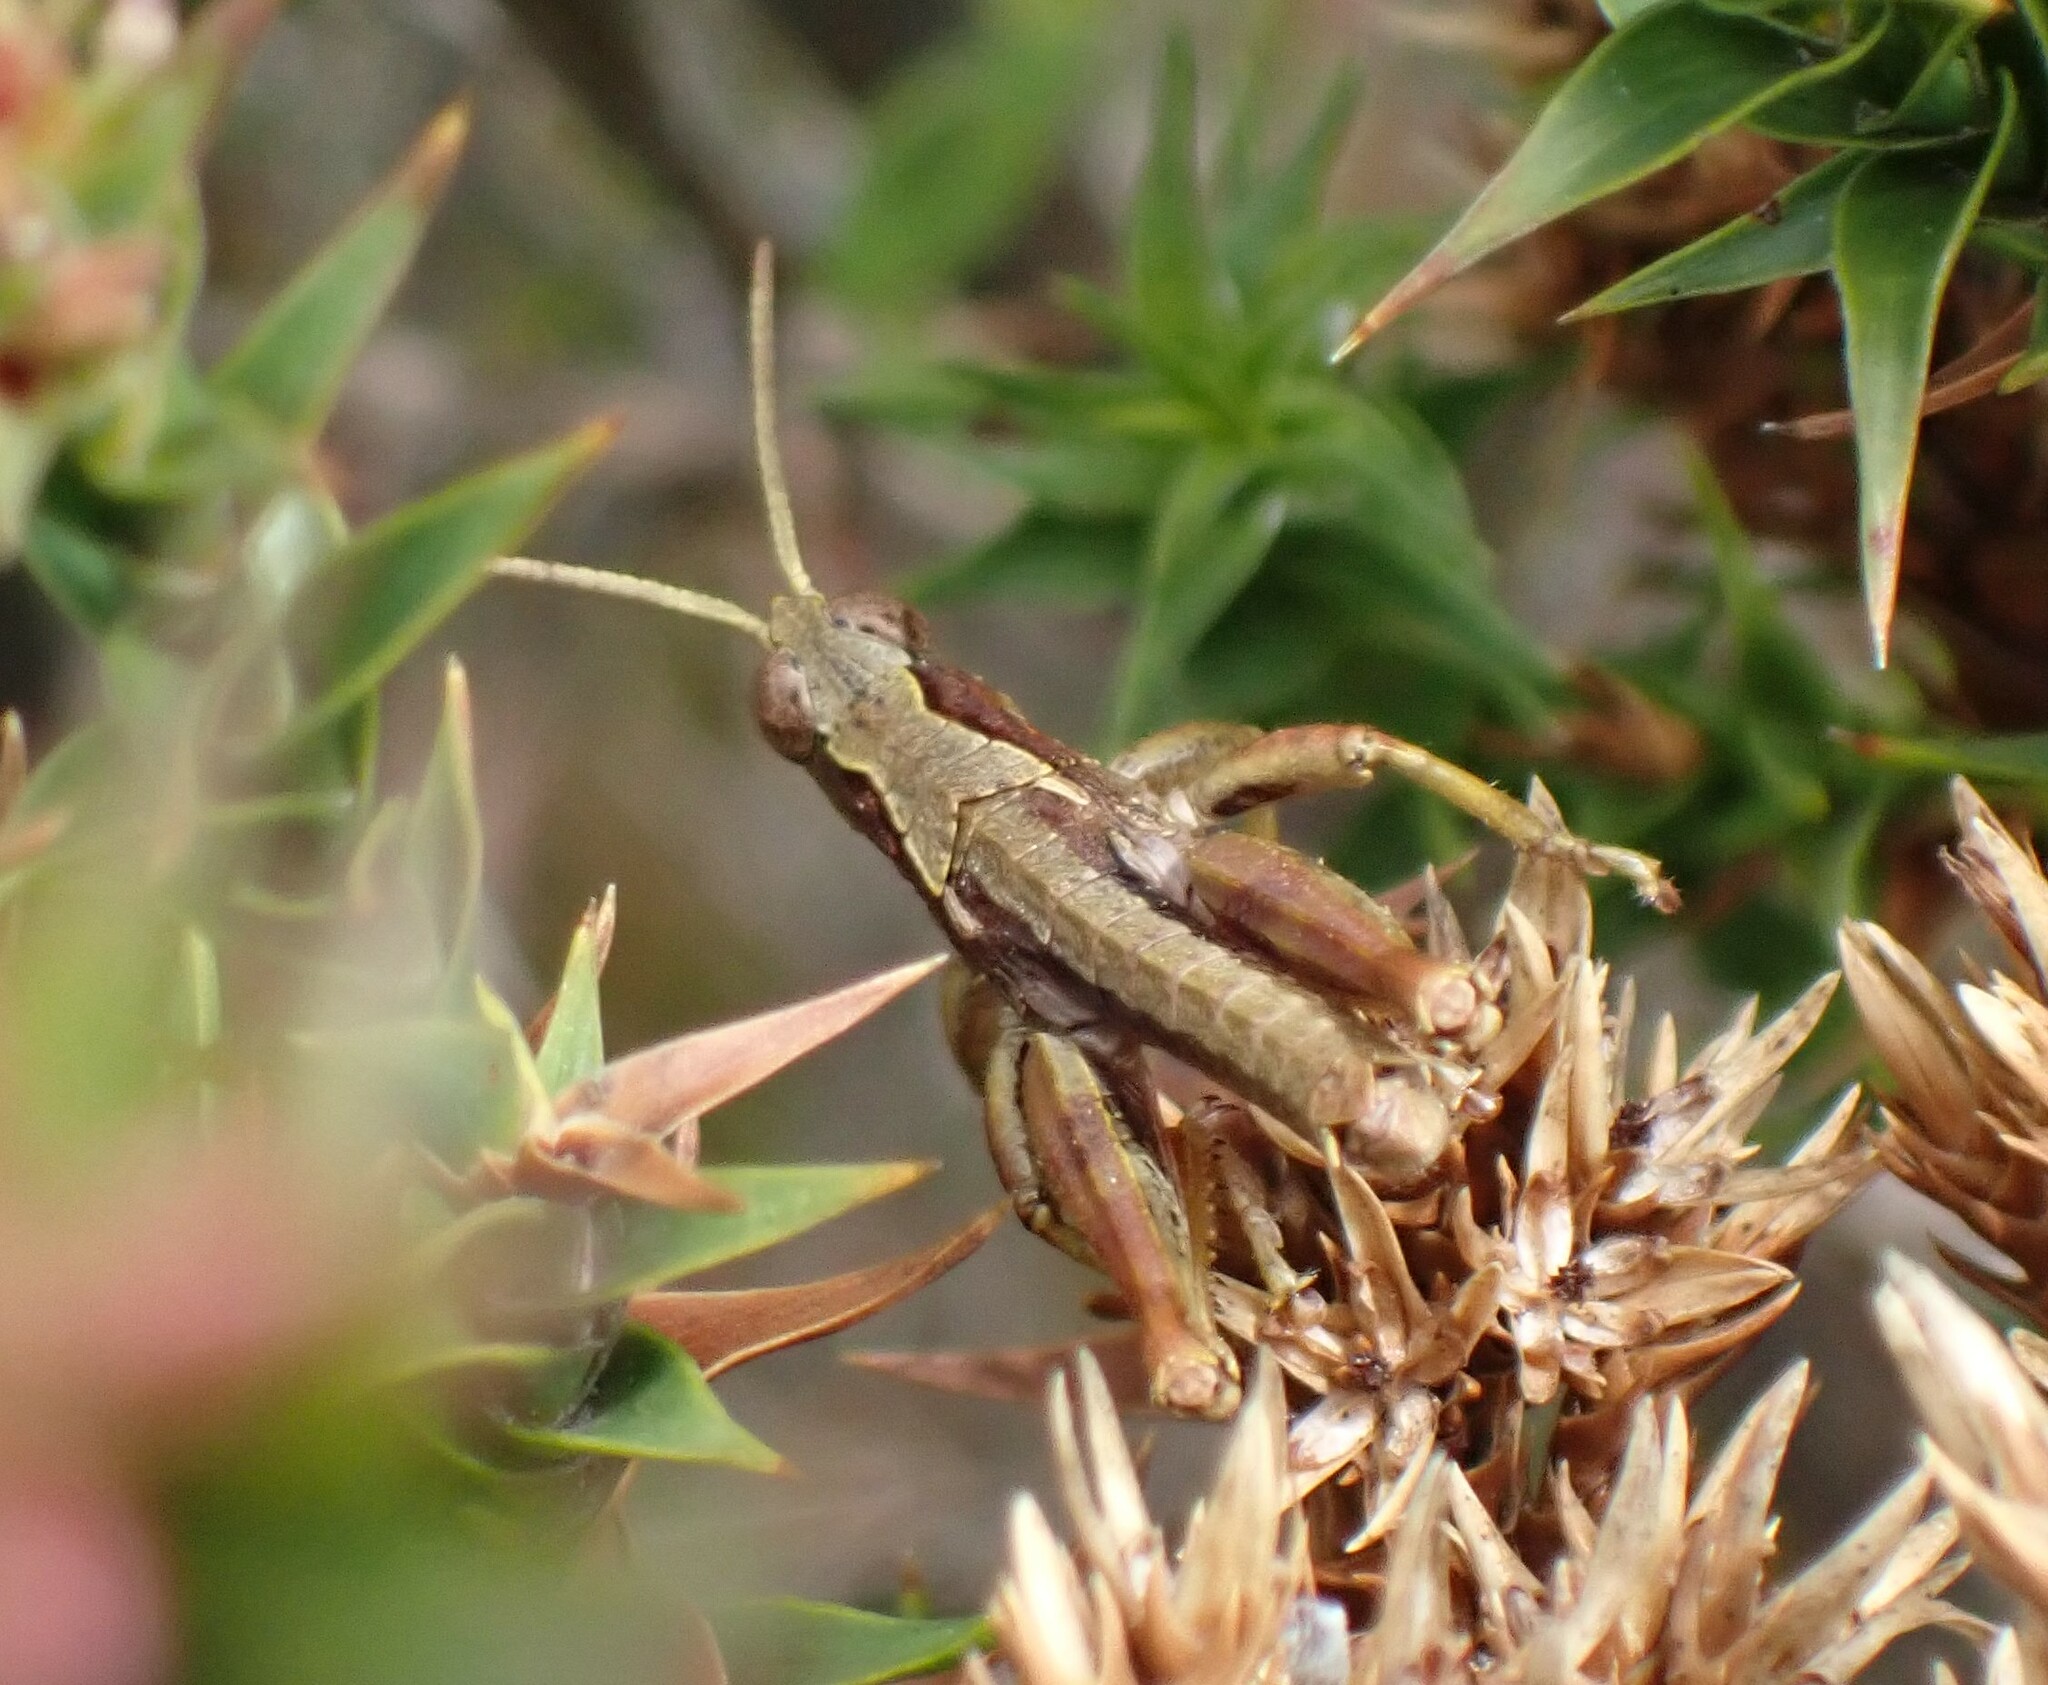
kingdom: Animalia
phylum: Arthropoda
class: Insecta
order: Orthoptera
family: Acrididae
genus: Tasmaniacris
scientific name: Tasmaniacris tasmaniensis
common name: Tasmanian grasshopper
